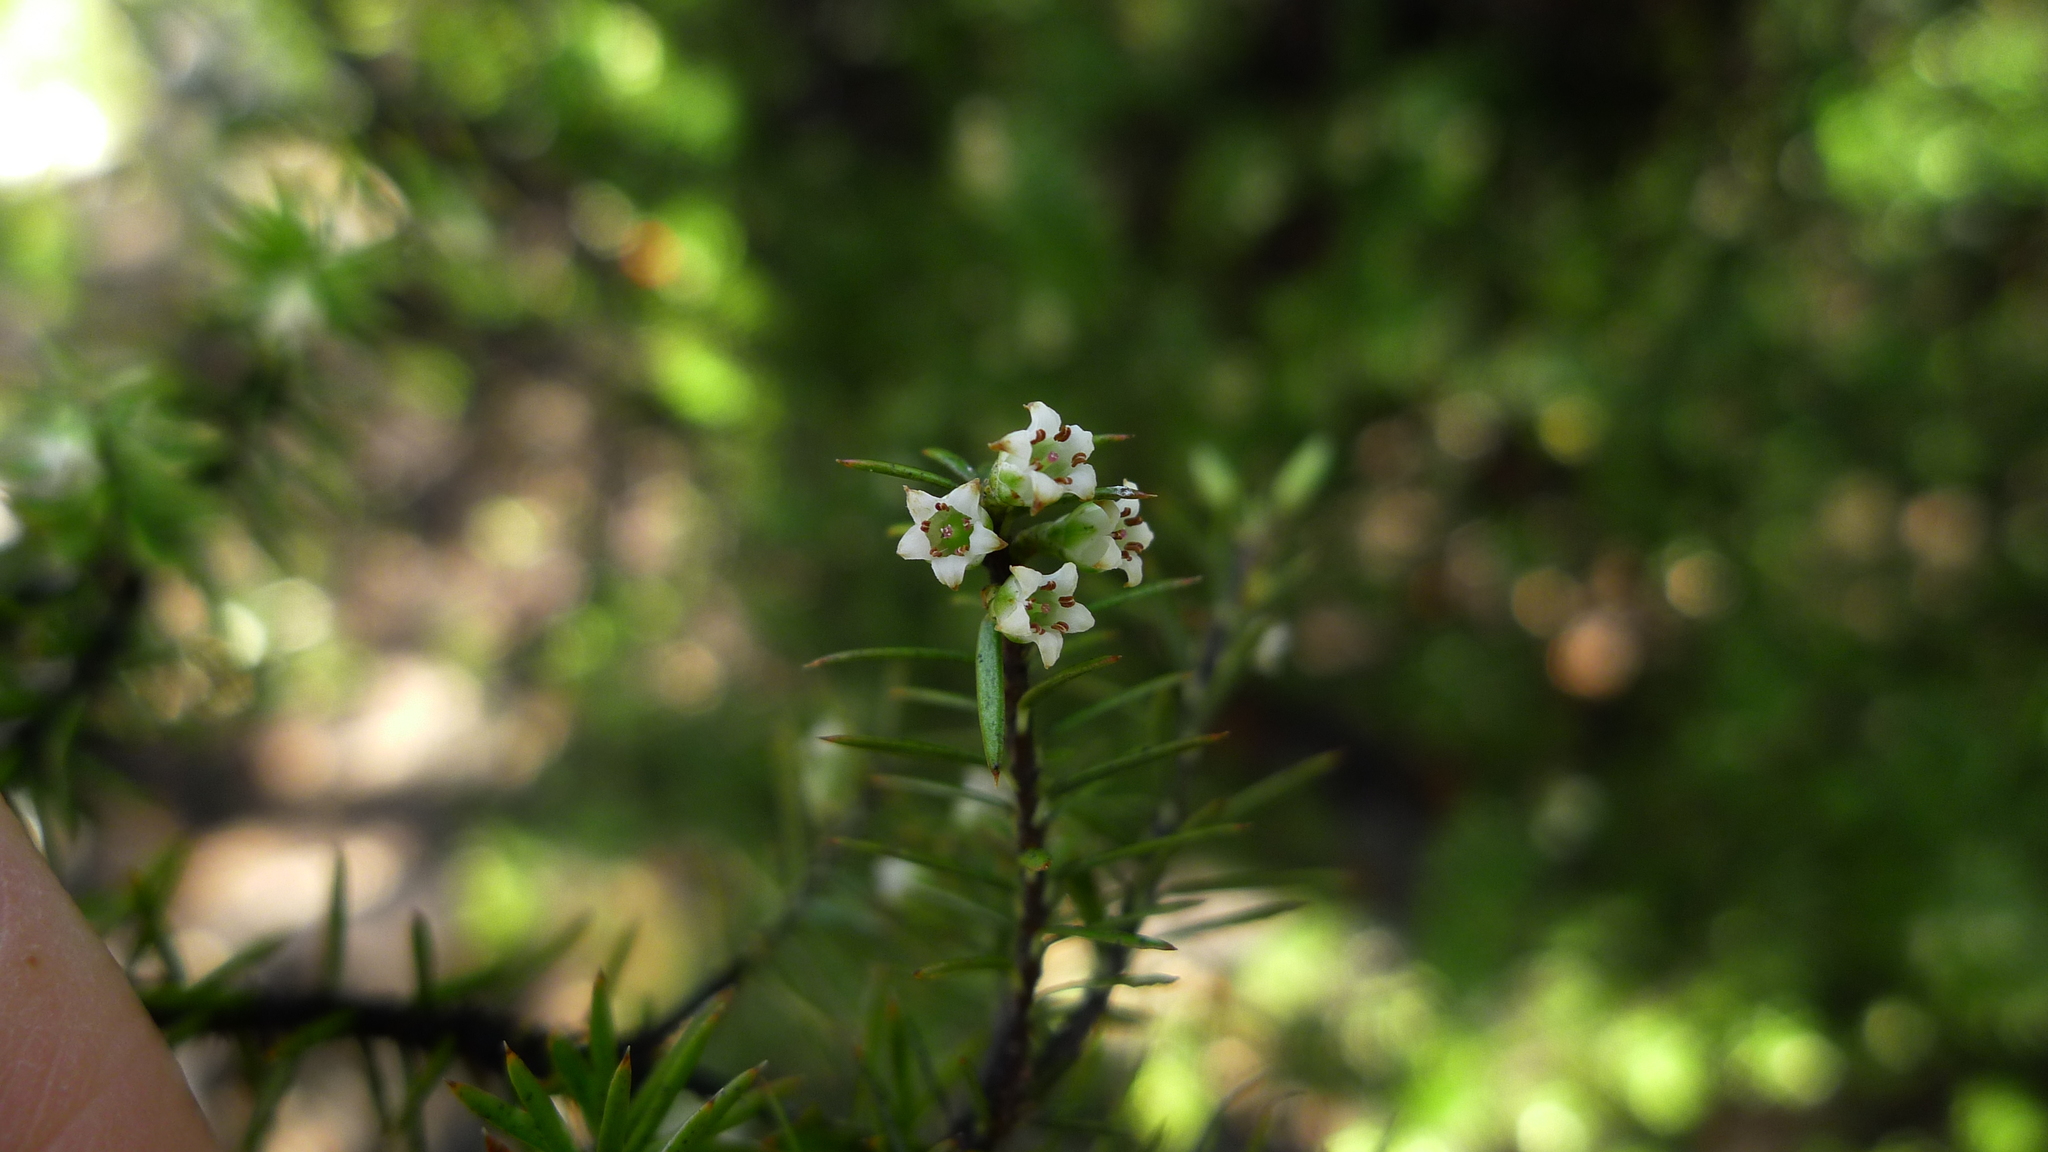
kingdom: Plantae
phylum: Tracheophyta
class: Magnoliopsida
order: Ericales
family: Ericaceae
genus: Leptecophylla
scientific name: Leptecophylla juniperina
